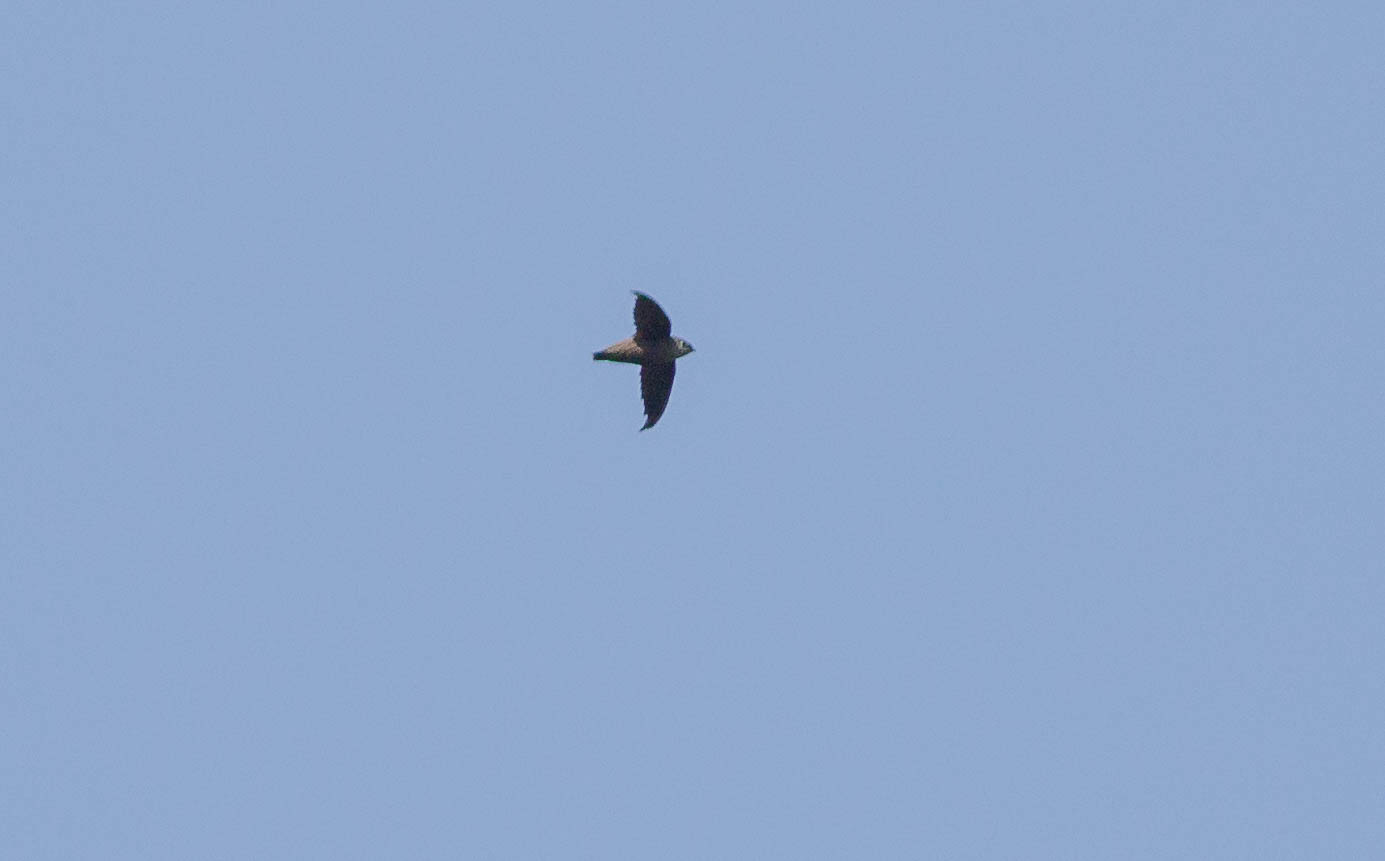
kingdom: Animalia
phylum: Chordata
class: Aves
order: Apodiformes
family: Apodidae
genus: Chaetura
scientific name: Chaetura pelagica
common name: Chimney swift
